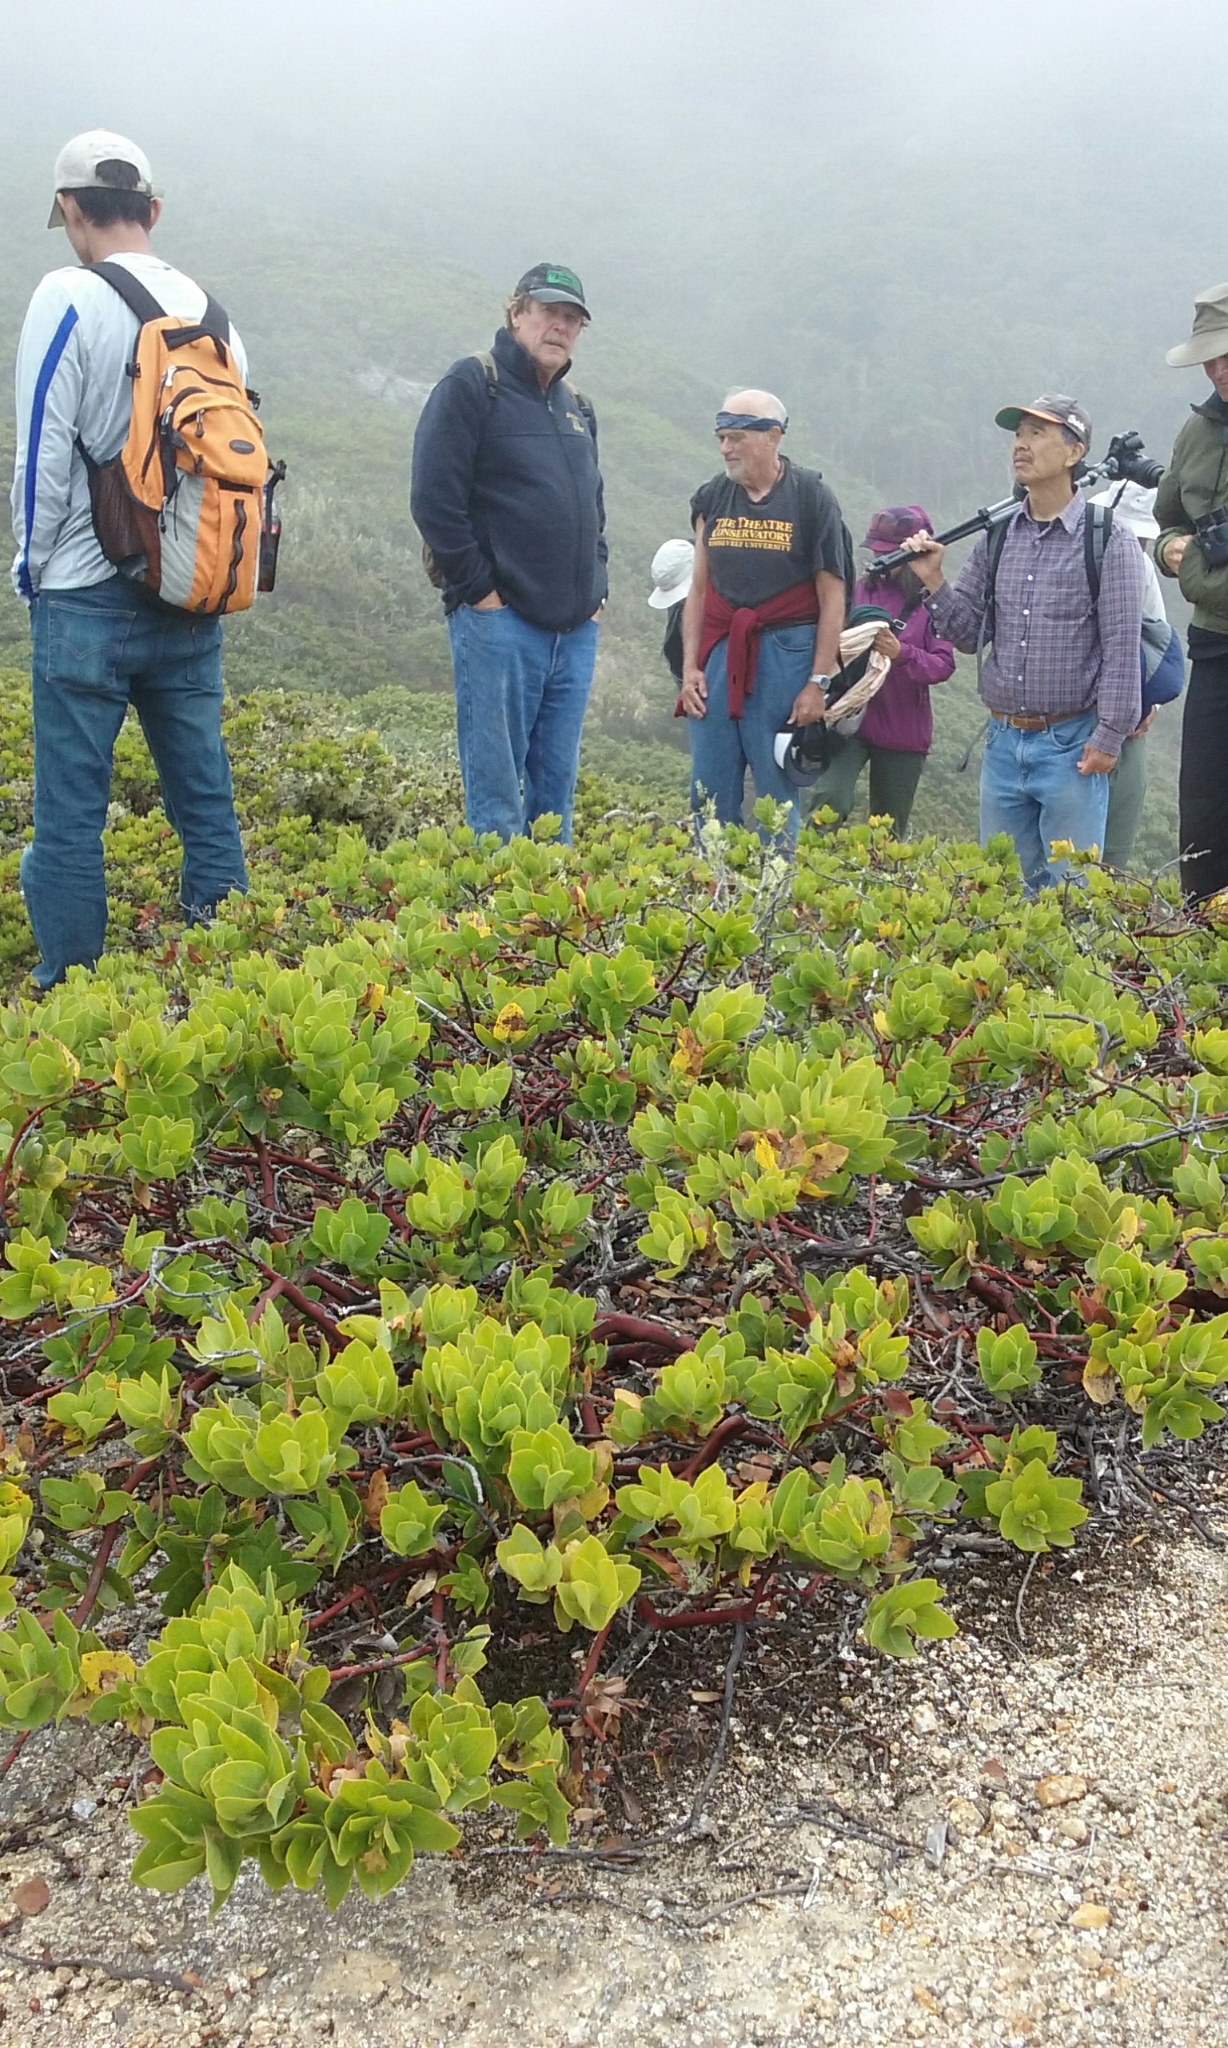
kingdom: Plantae
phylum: Tracheophyta
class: Magnoliopsida
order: Ericales
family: Ericaceae
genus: Arctostaphylos
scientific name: Arctostaphylos montaraensis
